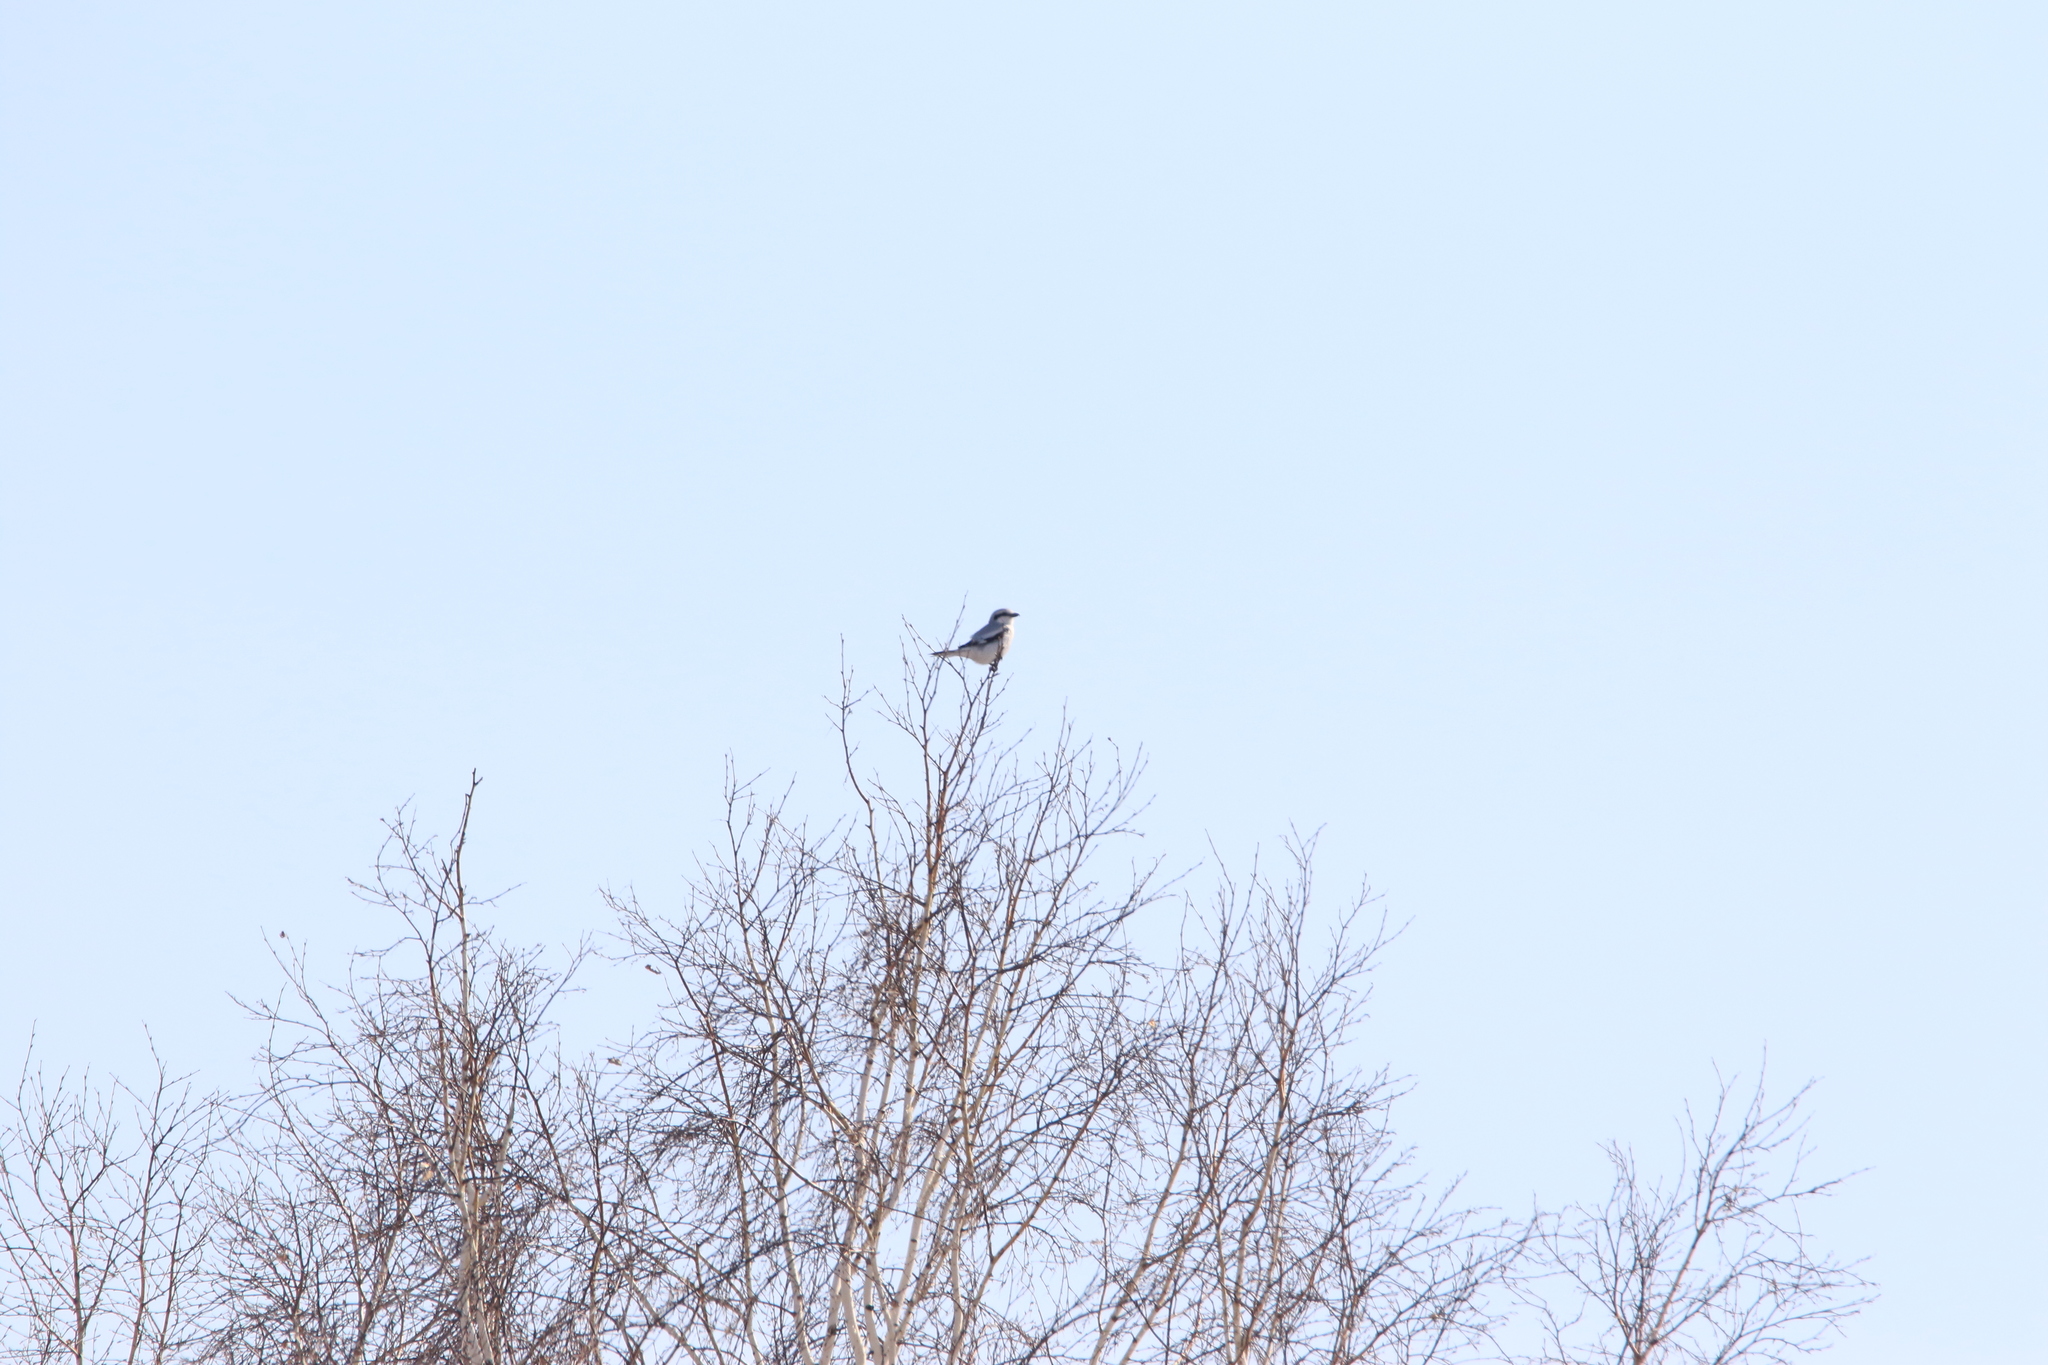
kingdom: Animalia
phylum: Chordata
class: Aves
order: Passeriformes
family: Laniidae
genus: Lanius
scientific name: Lanius excubitor
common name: Great grey shrike
